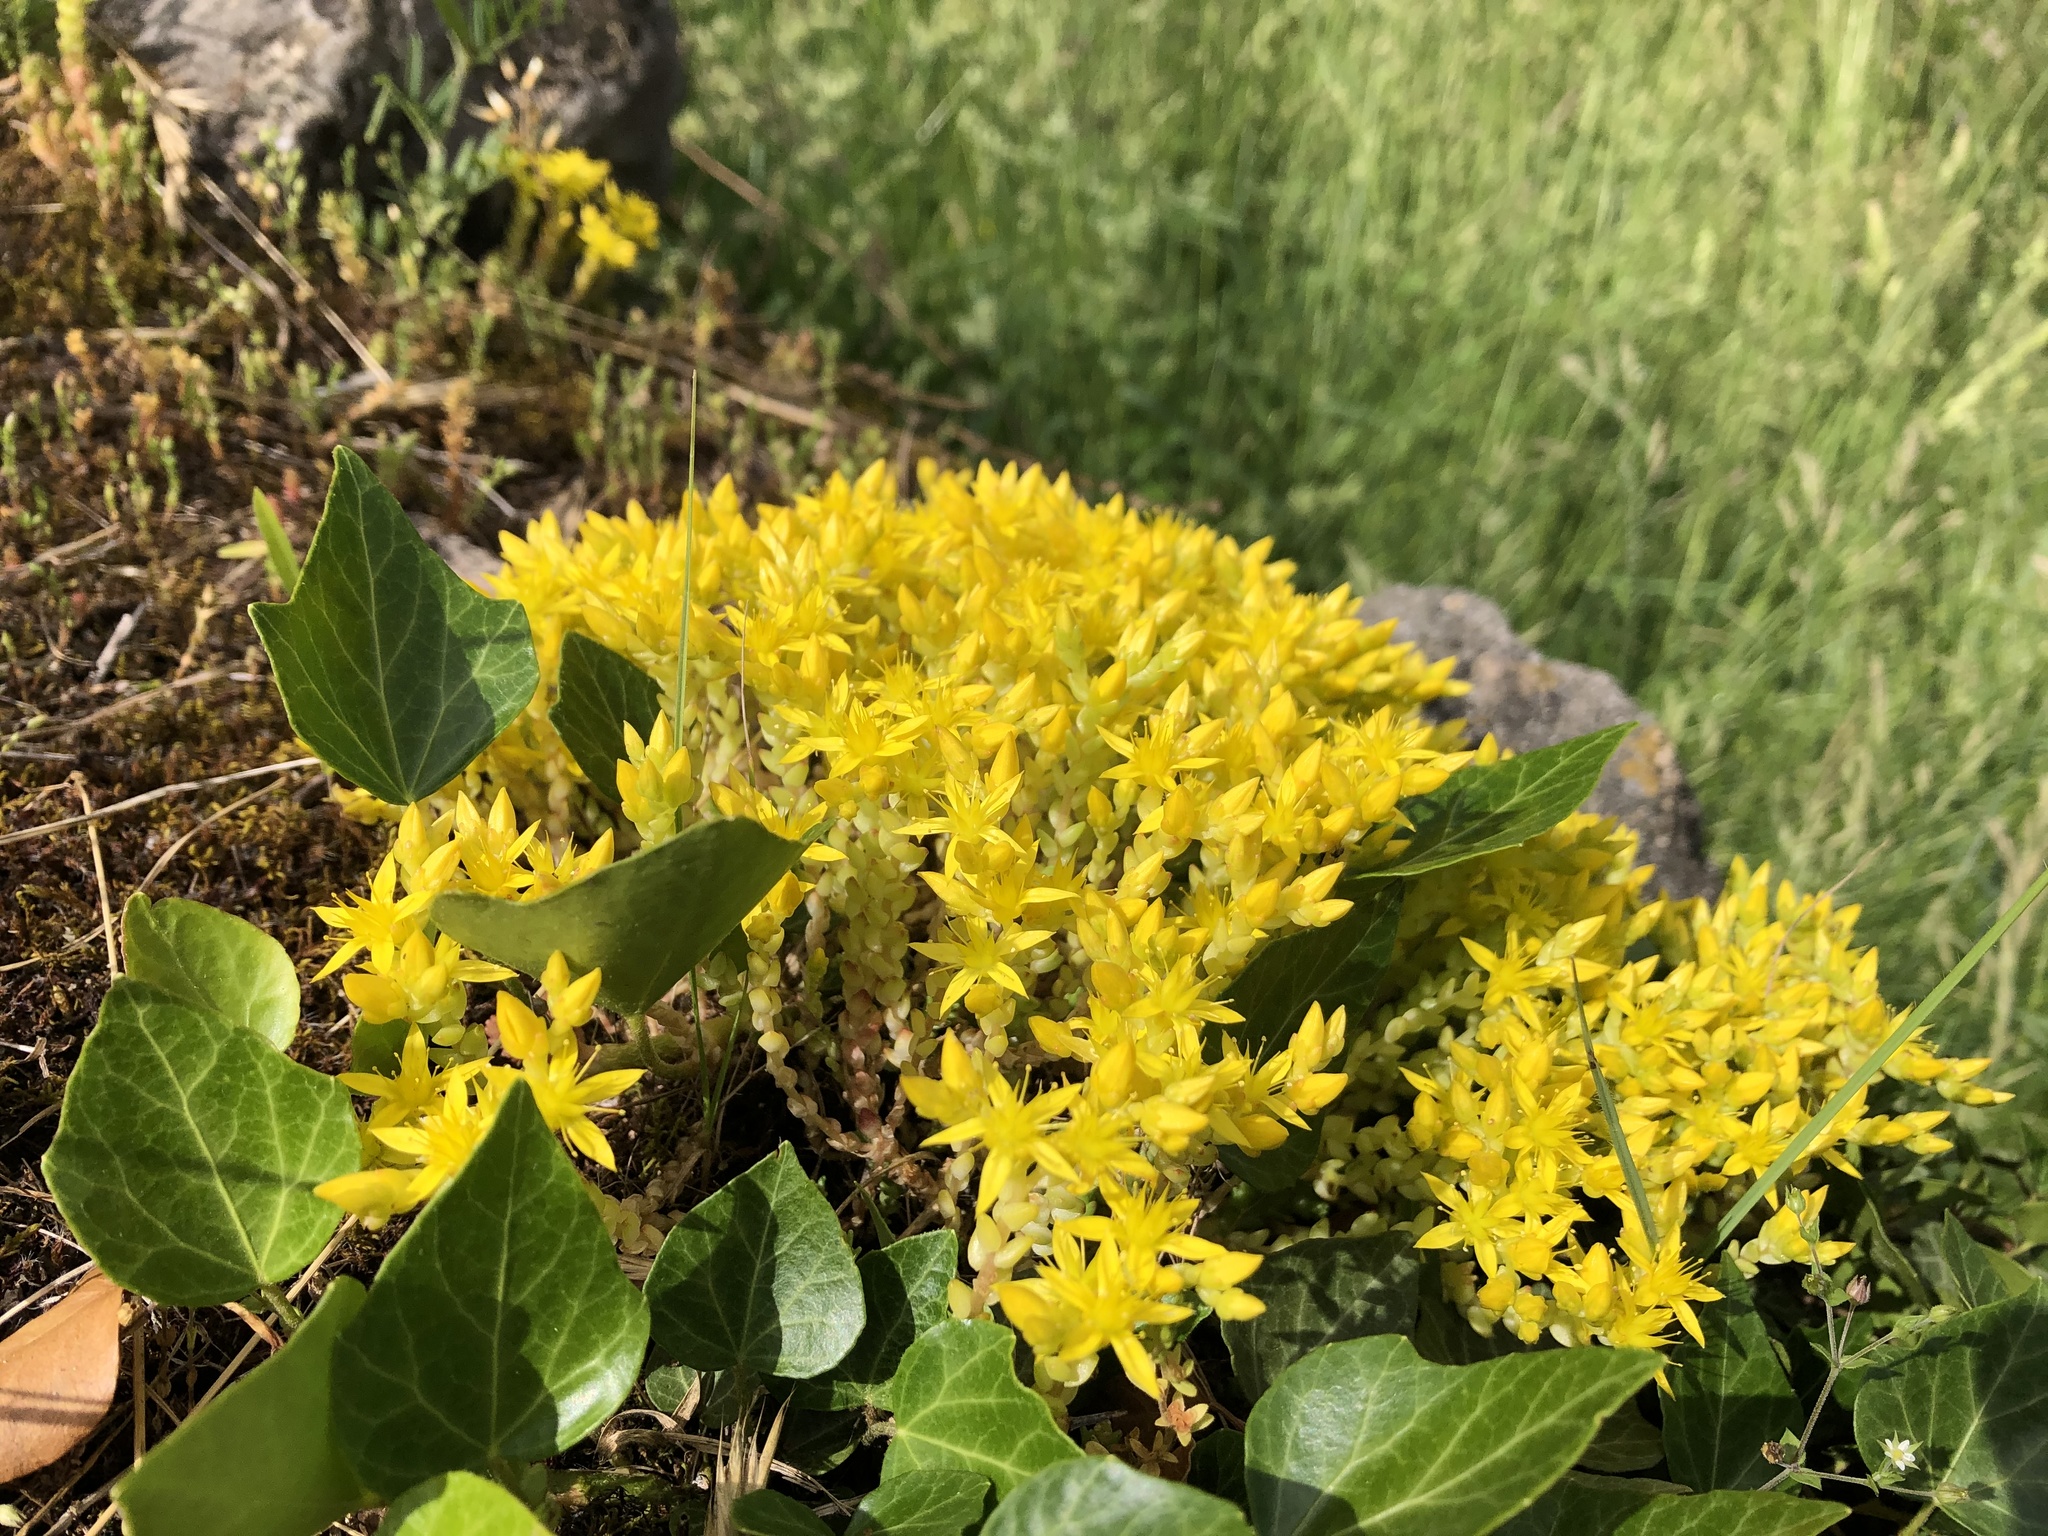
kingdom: Plantae
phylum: Tracheophyta
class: Magnoliopsida
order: Saxifragales
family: Crassulaceae
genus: Sedum
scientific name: Sedum acre
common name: Biting stonecrop
